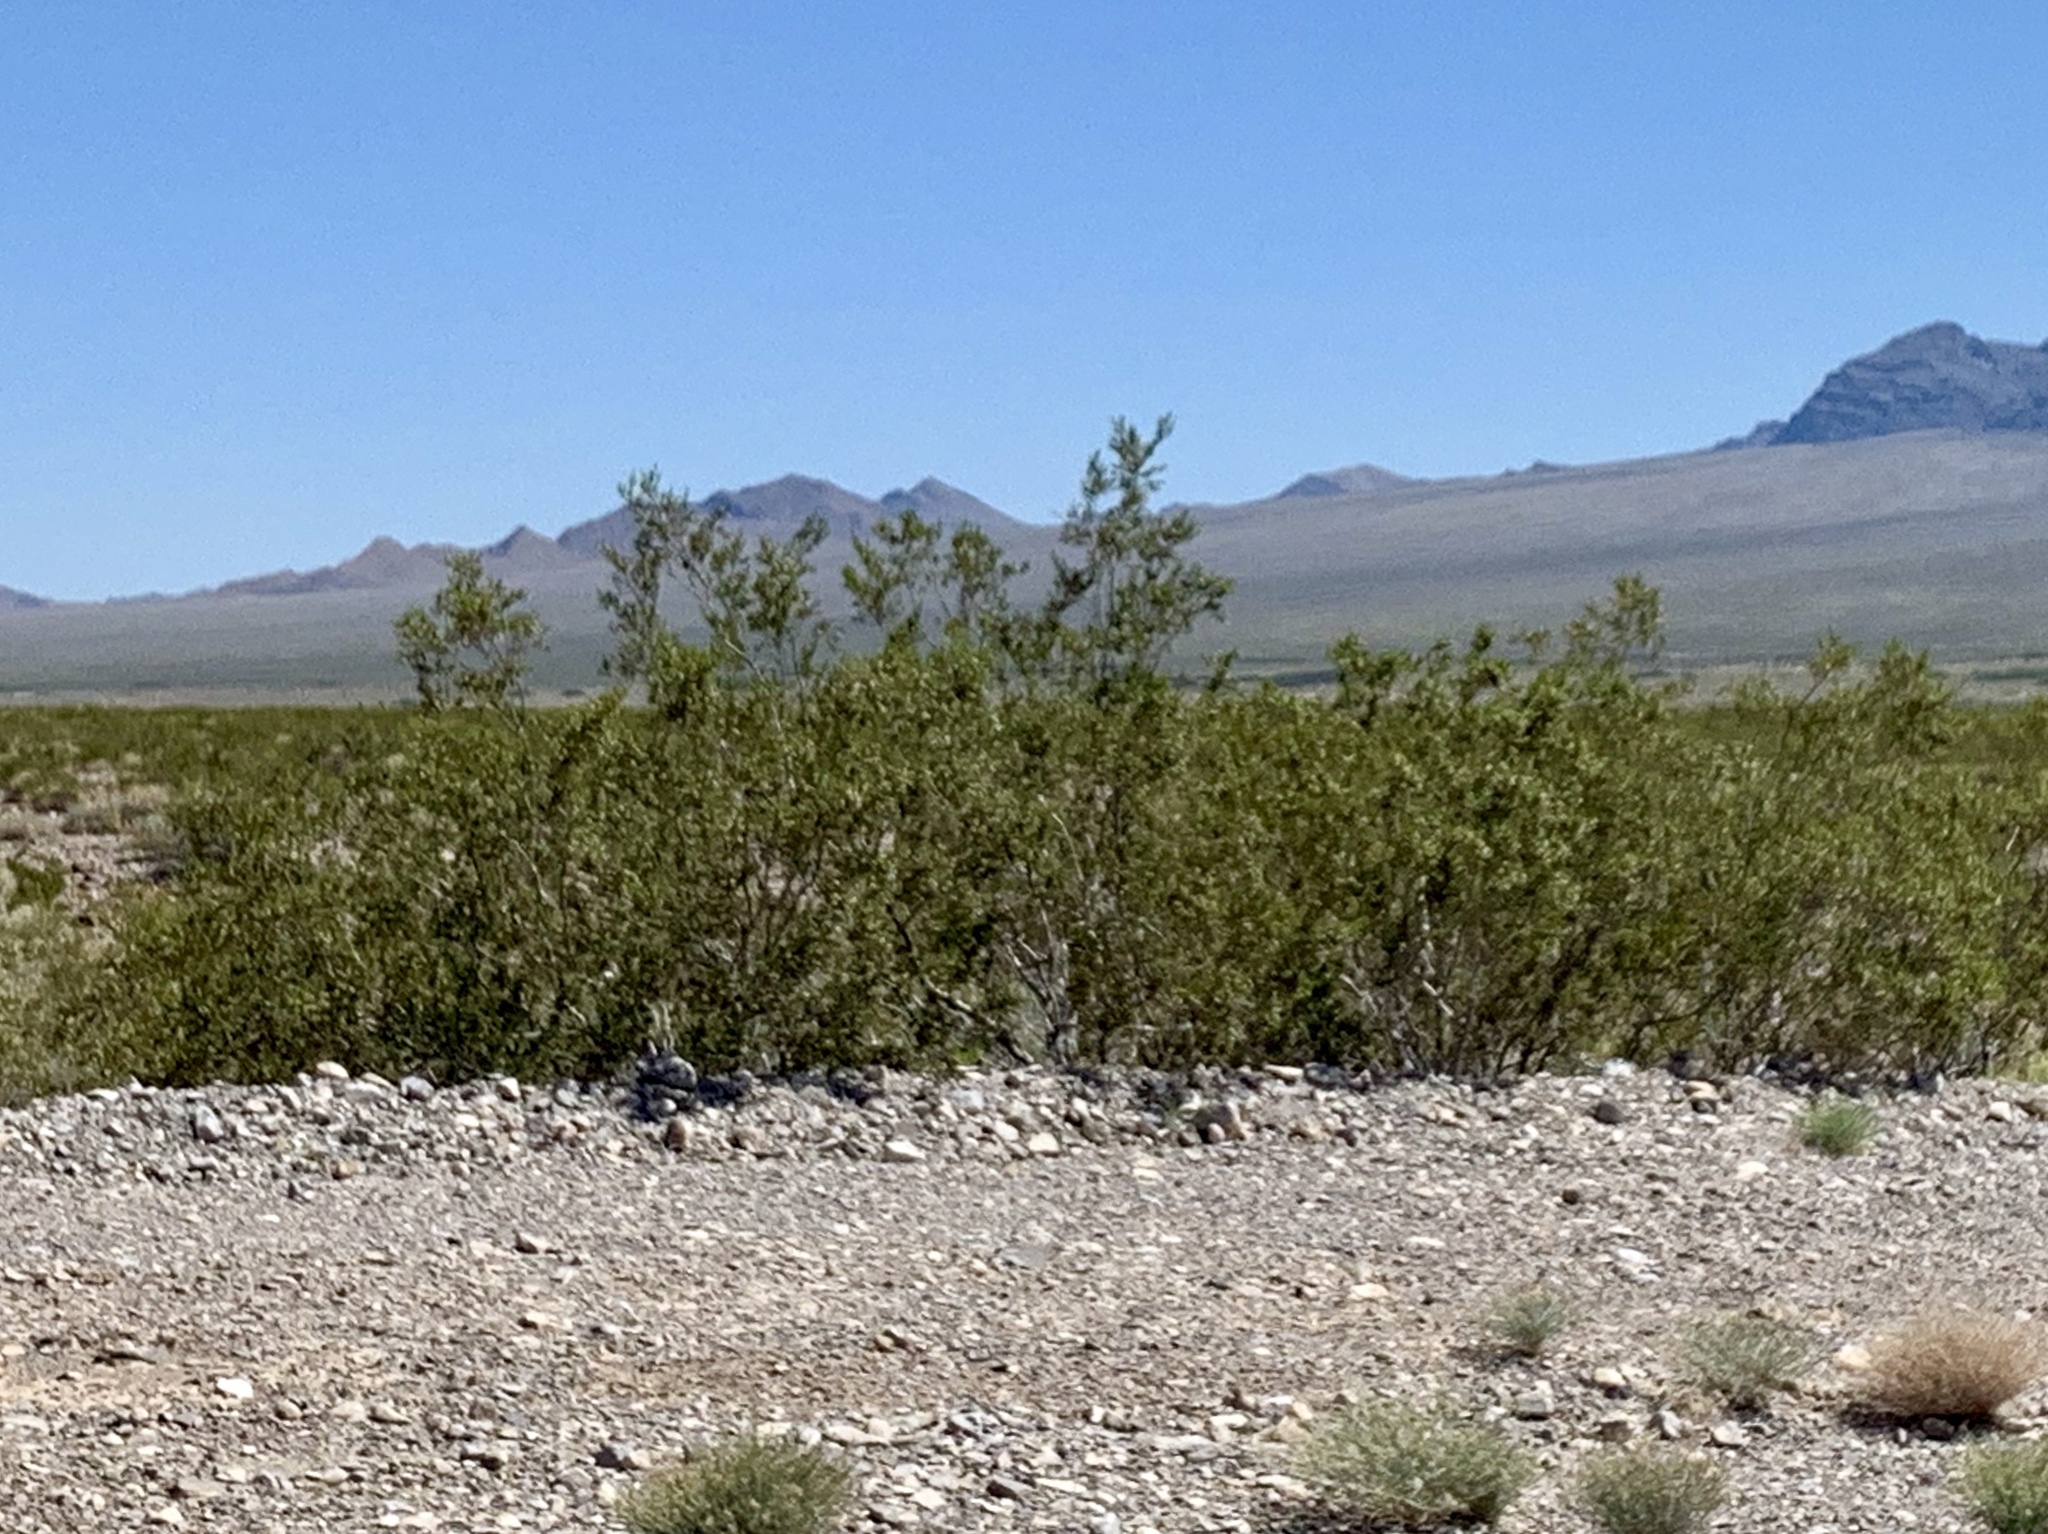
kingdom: Plantae
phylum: Tracheophyta
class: Magnoliopsida
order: Zygophyllales
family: Zygophyllaceae
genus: Larrea
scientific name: Larrea tridentata
